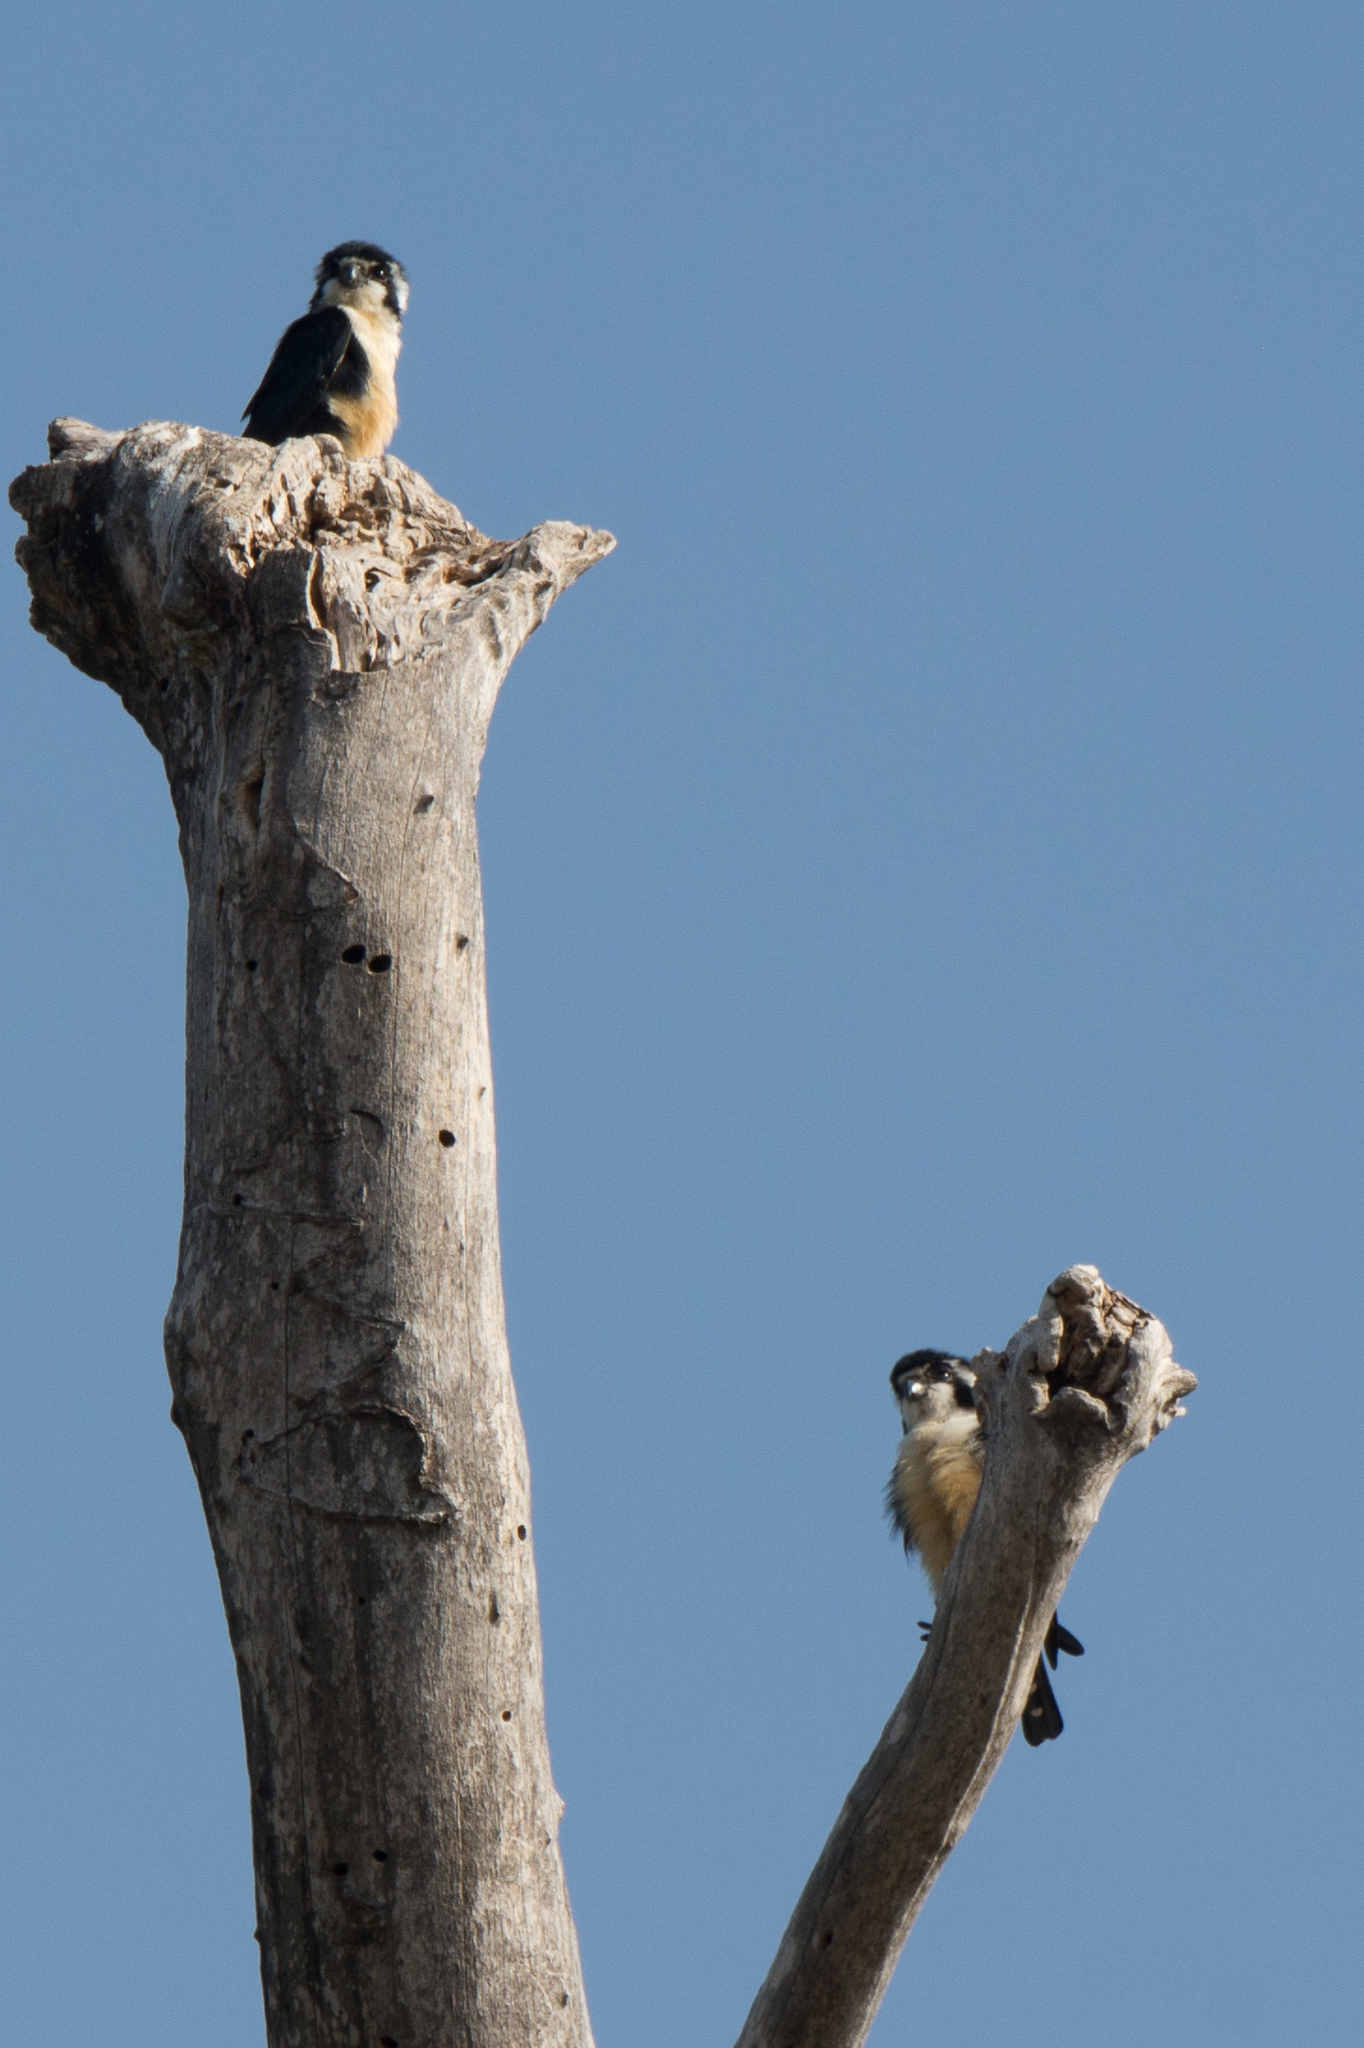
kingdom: Animalia
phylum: Chordata
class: Aves
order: Falconiformes
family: Falconidae
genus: Microhierax
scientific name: Microhierax fringillarius
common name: Black-thighed falconet
